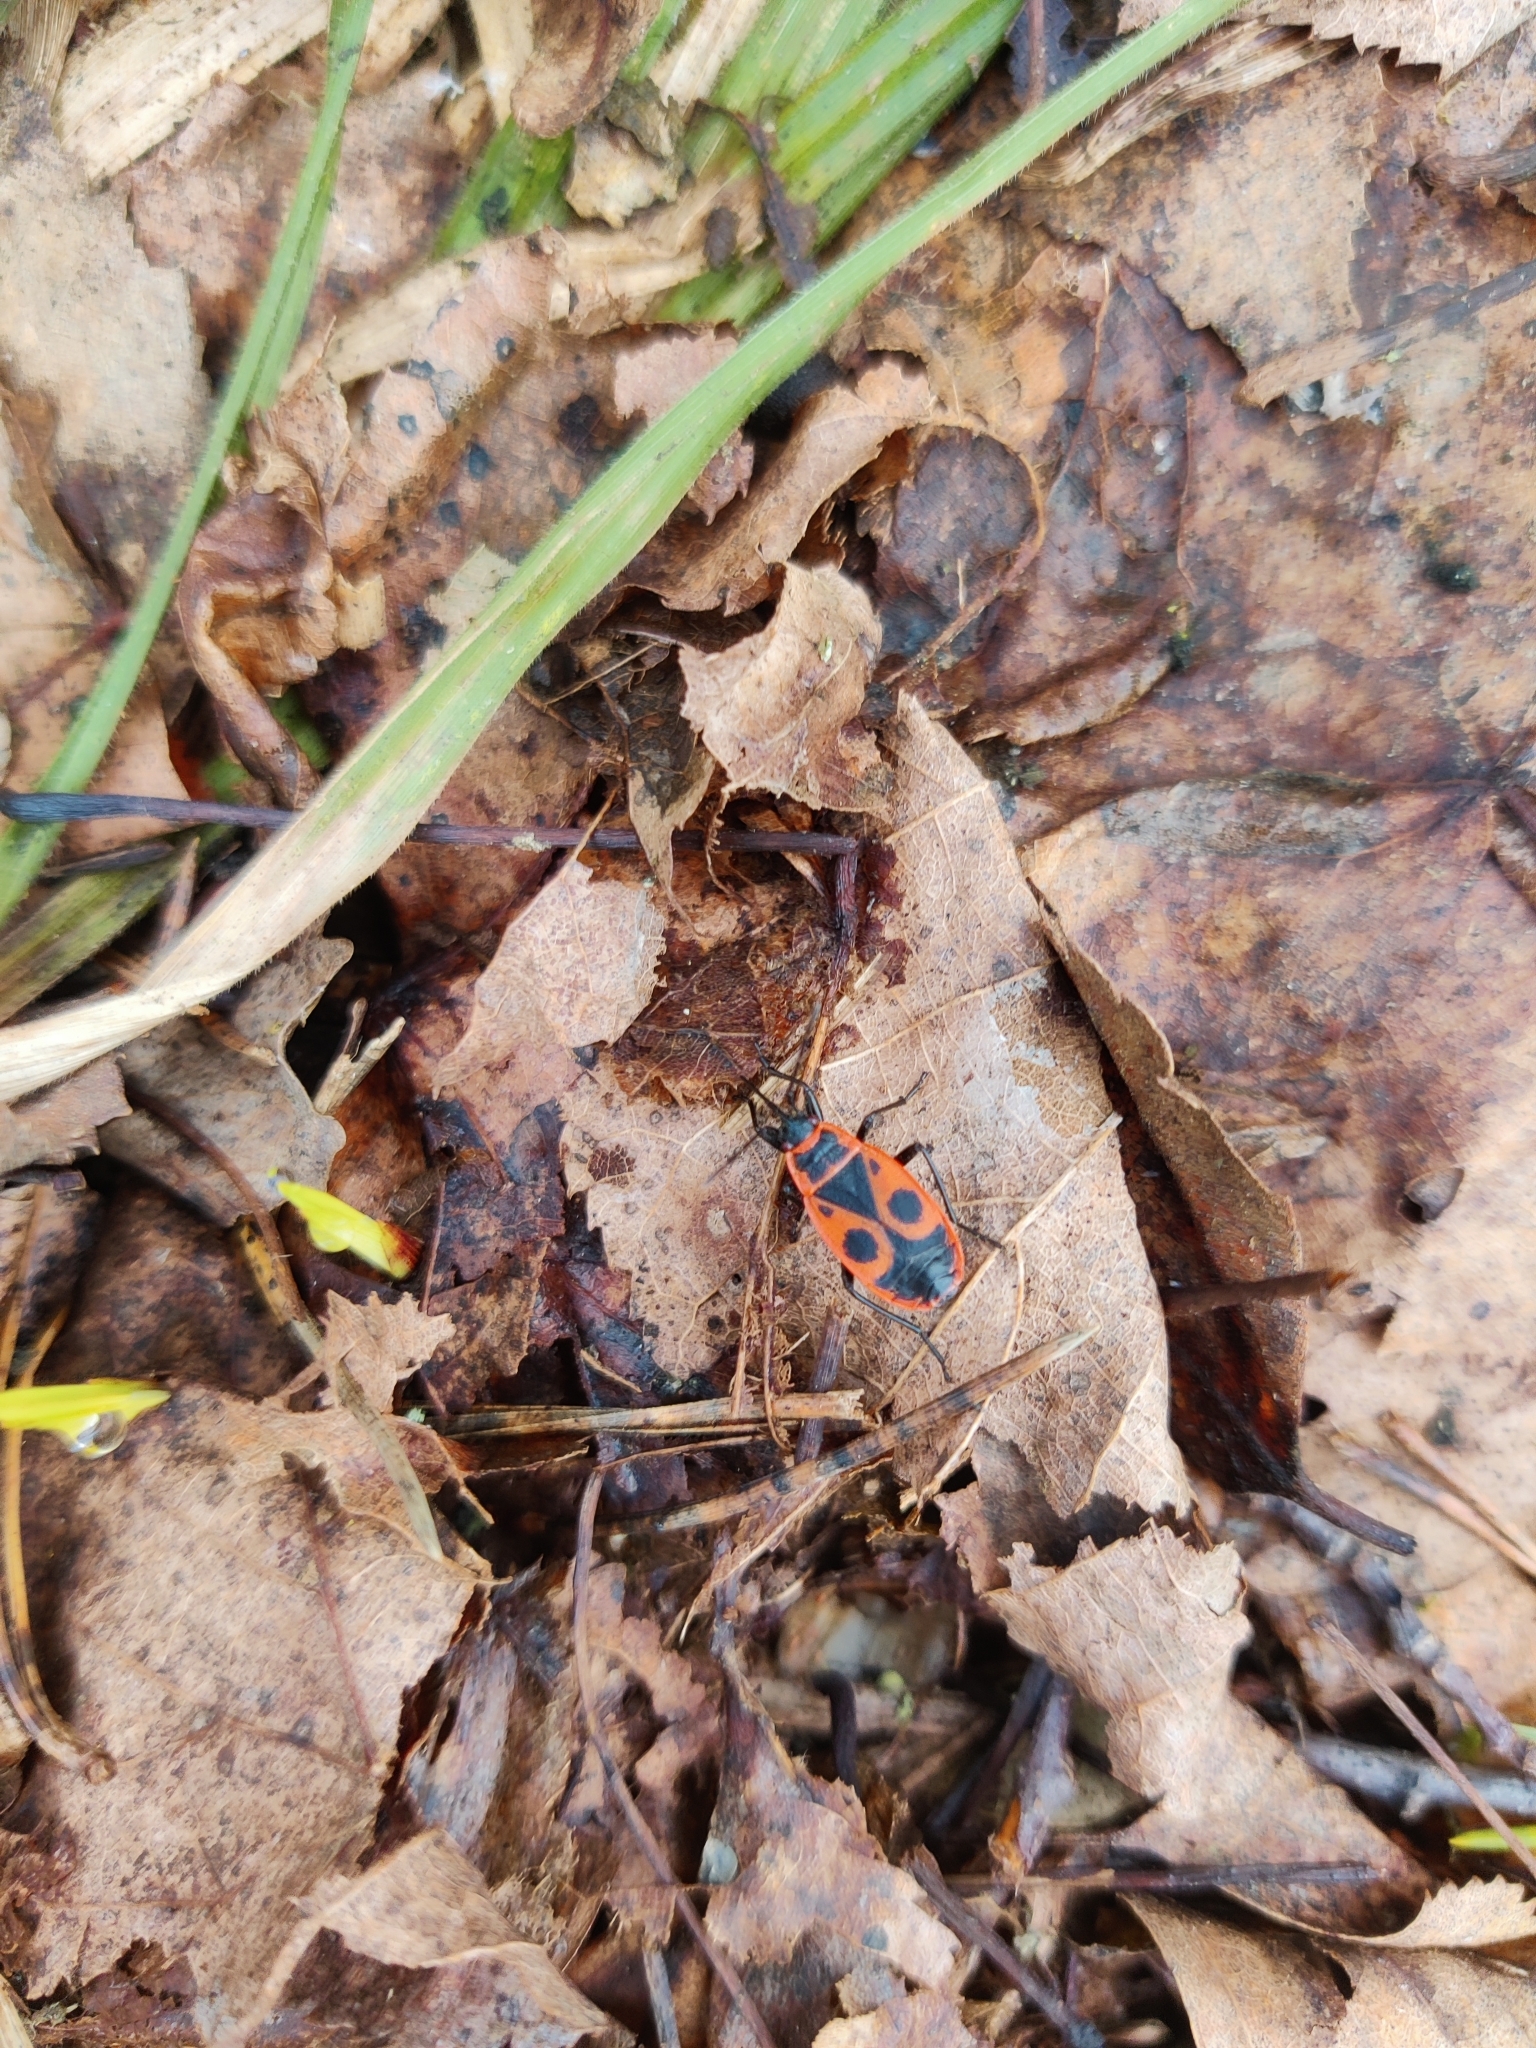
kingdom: Animalia
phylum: Arthropoda
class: Insecta
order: Hemiptera
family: Pyrrhocoridae
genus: Pyrrhocoris
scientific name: Pyrrhocoris apterus
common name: Firebug
